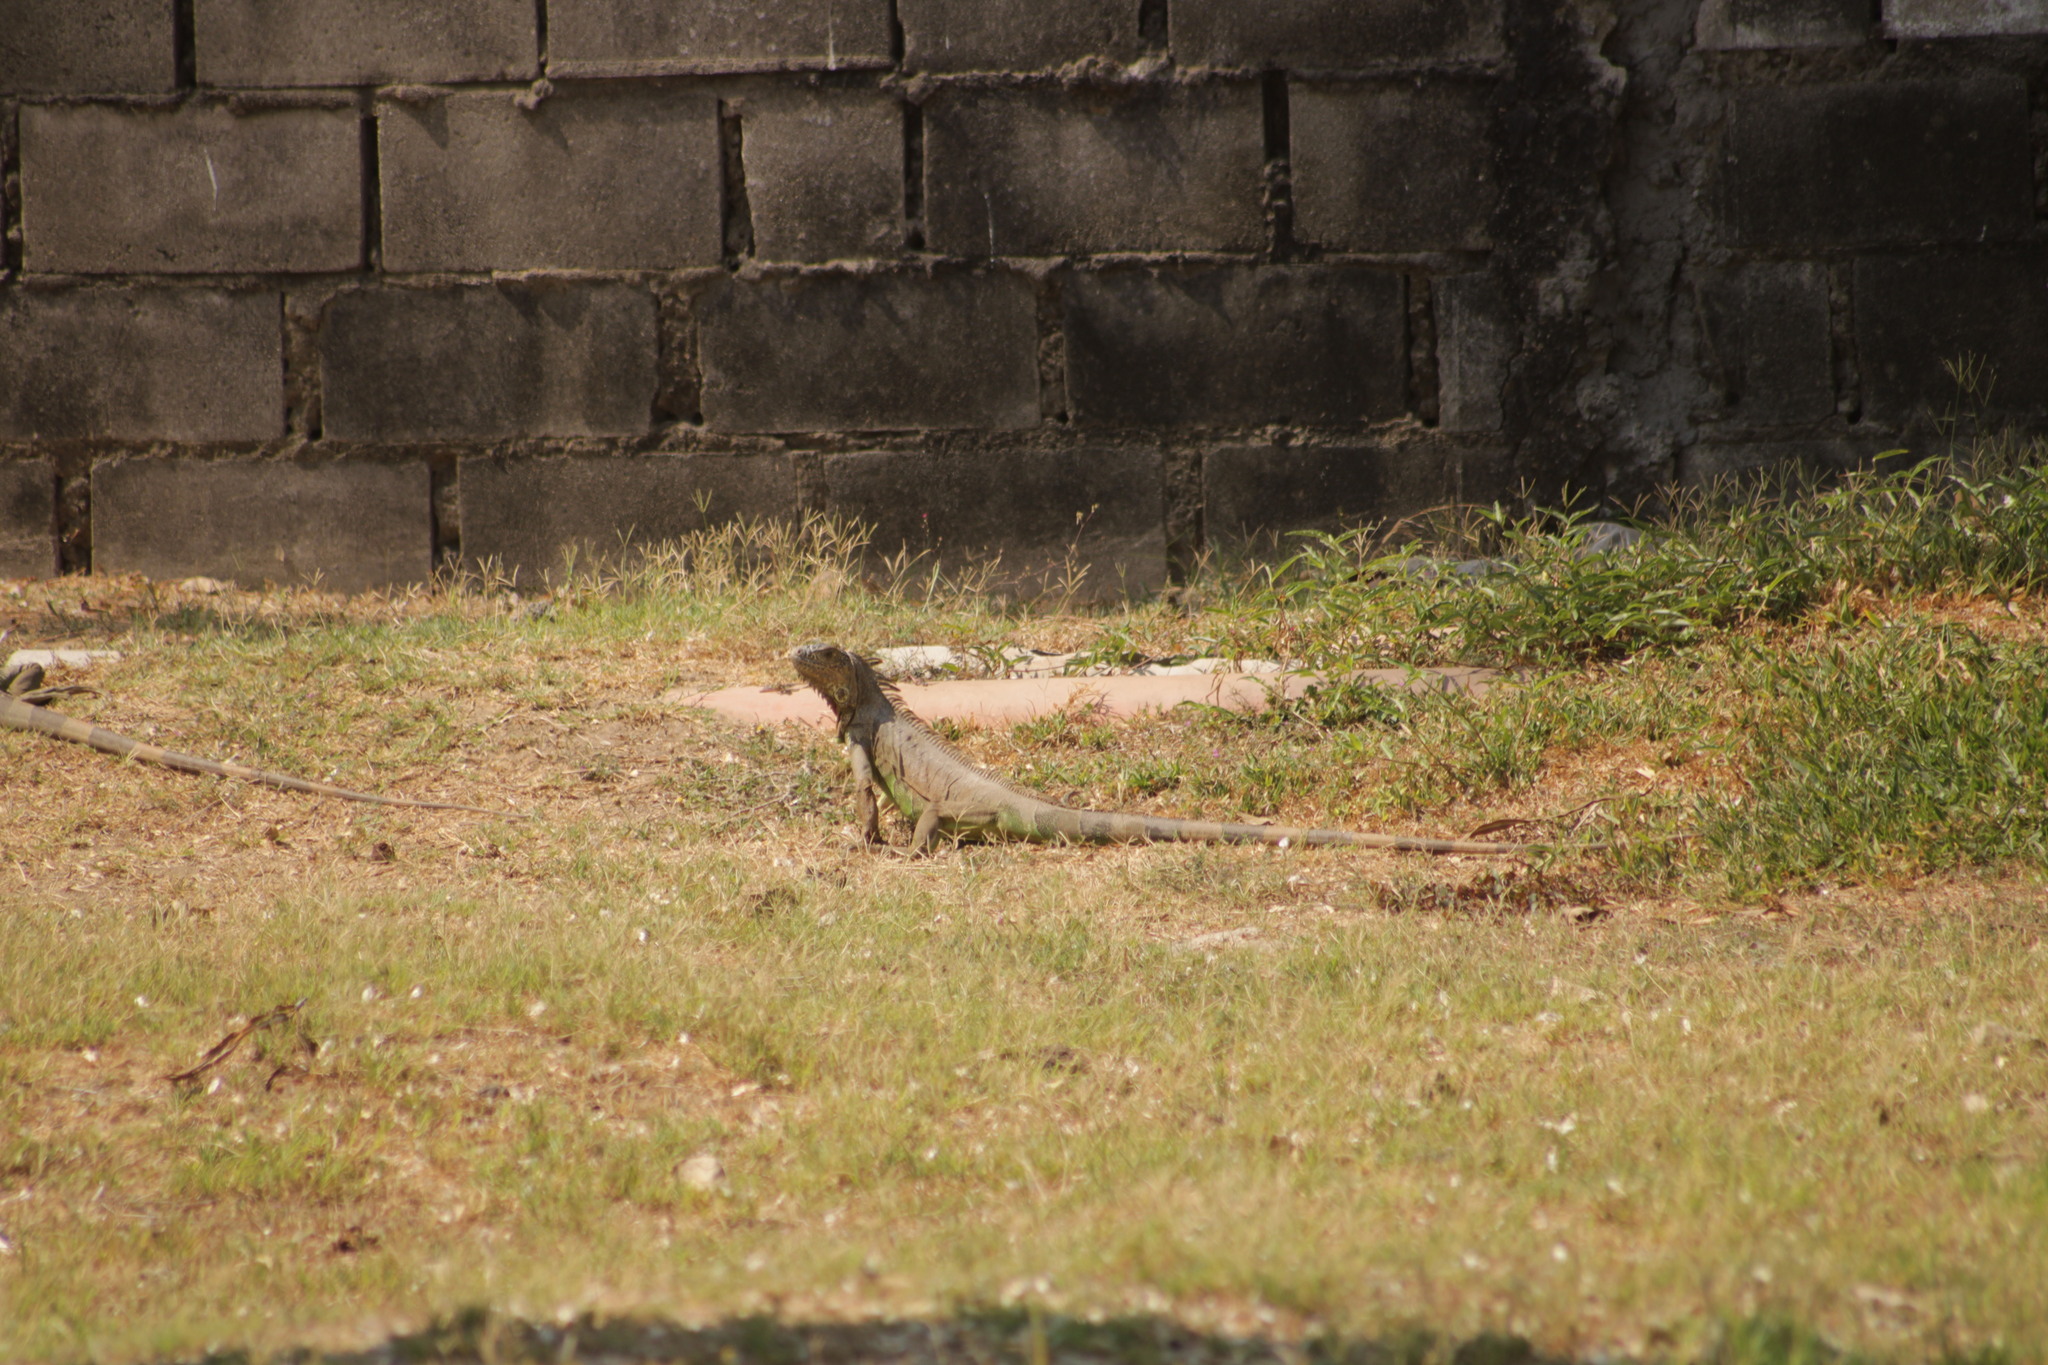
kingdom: Animalia
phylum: Chordata
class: Squamata
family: Iguanidae
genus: Iguana
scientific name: Iguana iguana
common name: Green iguana
